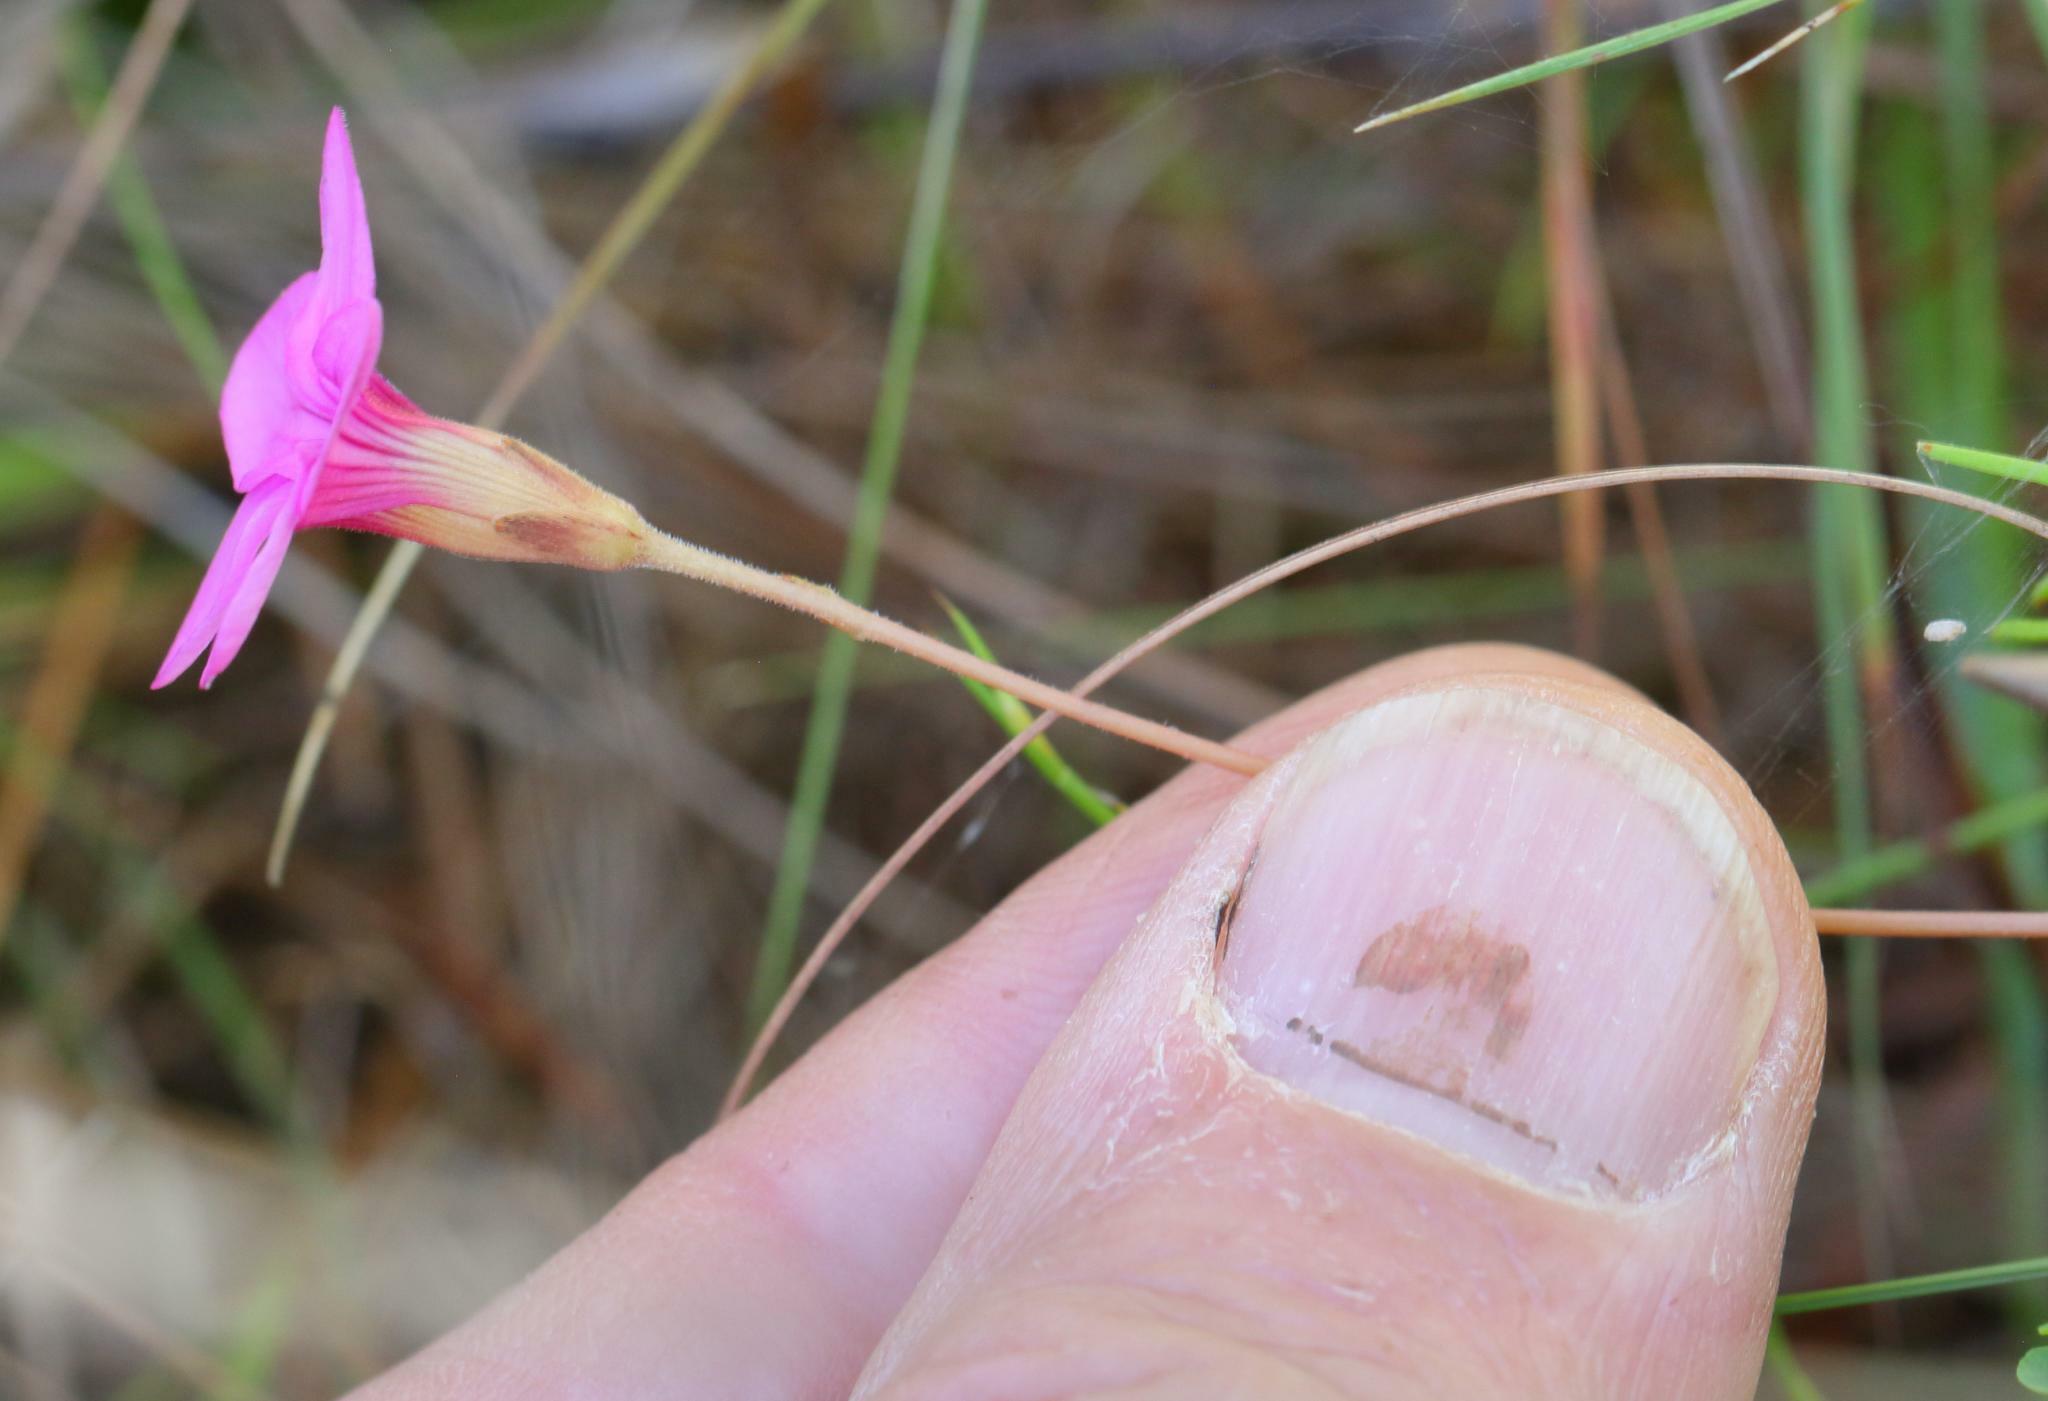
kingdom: Plantae
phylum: Tracheophyta
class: Magnoliopsida
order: Oxalidales
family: Oxalidaceae
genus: Oxalis
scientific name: Oxalis polyphylla
